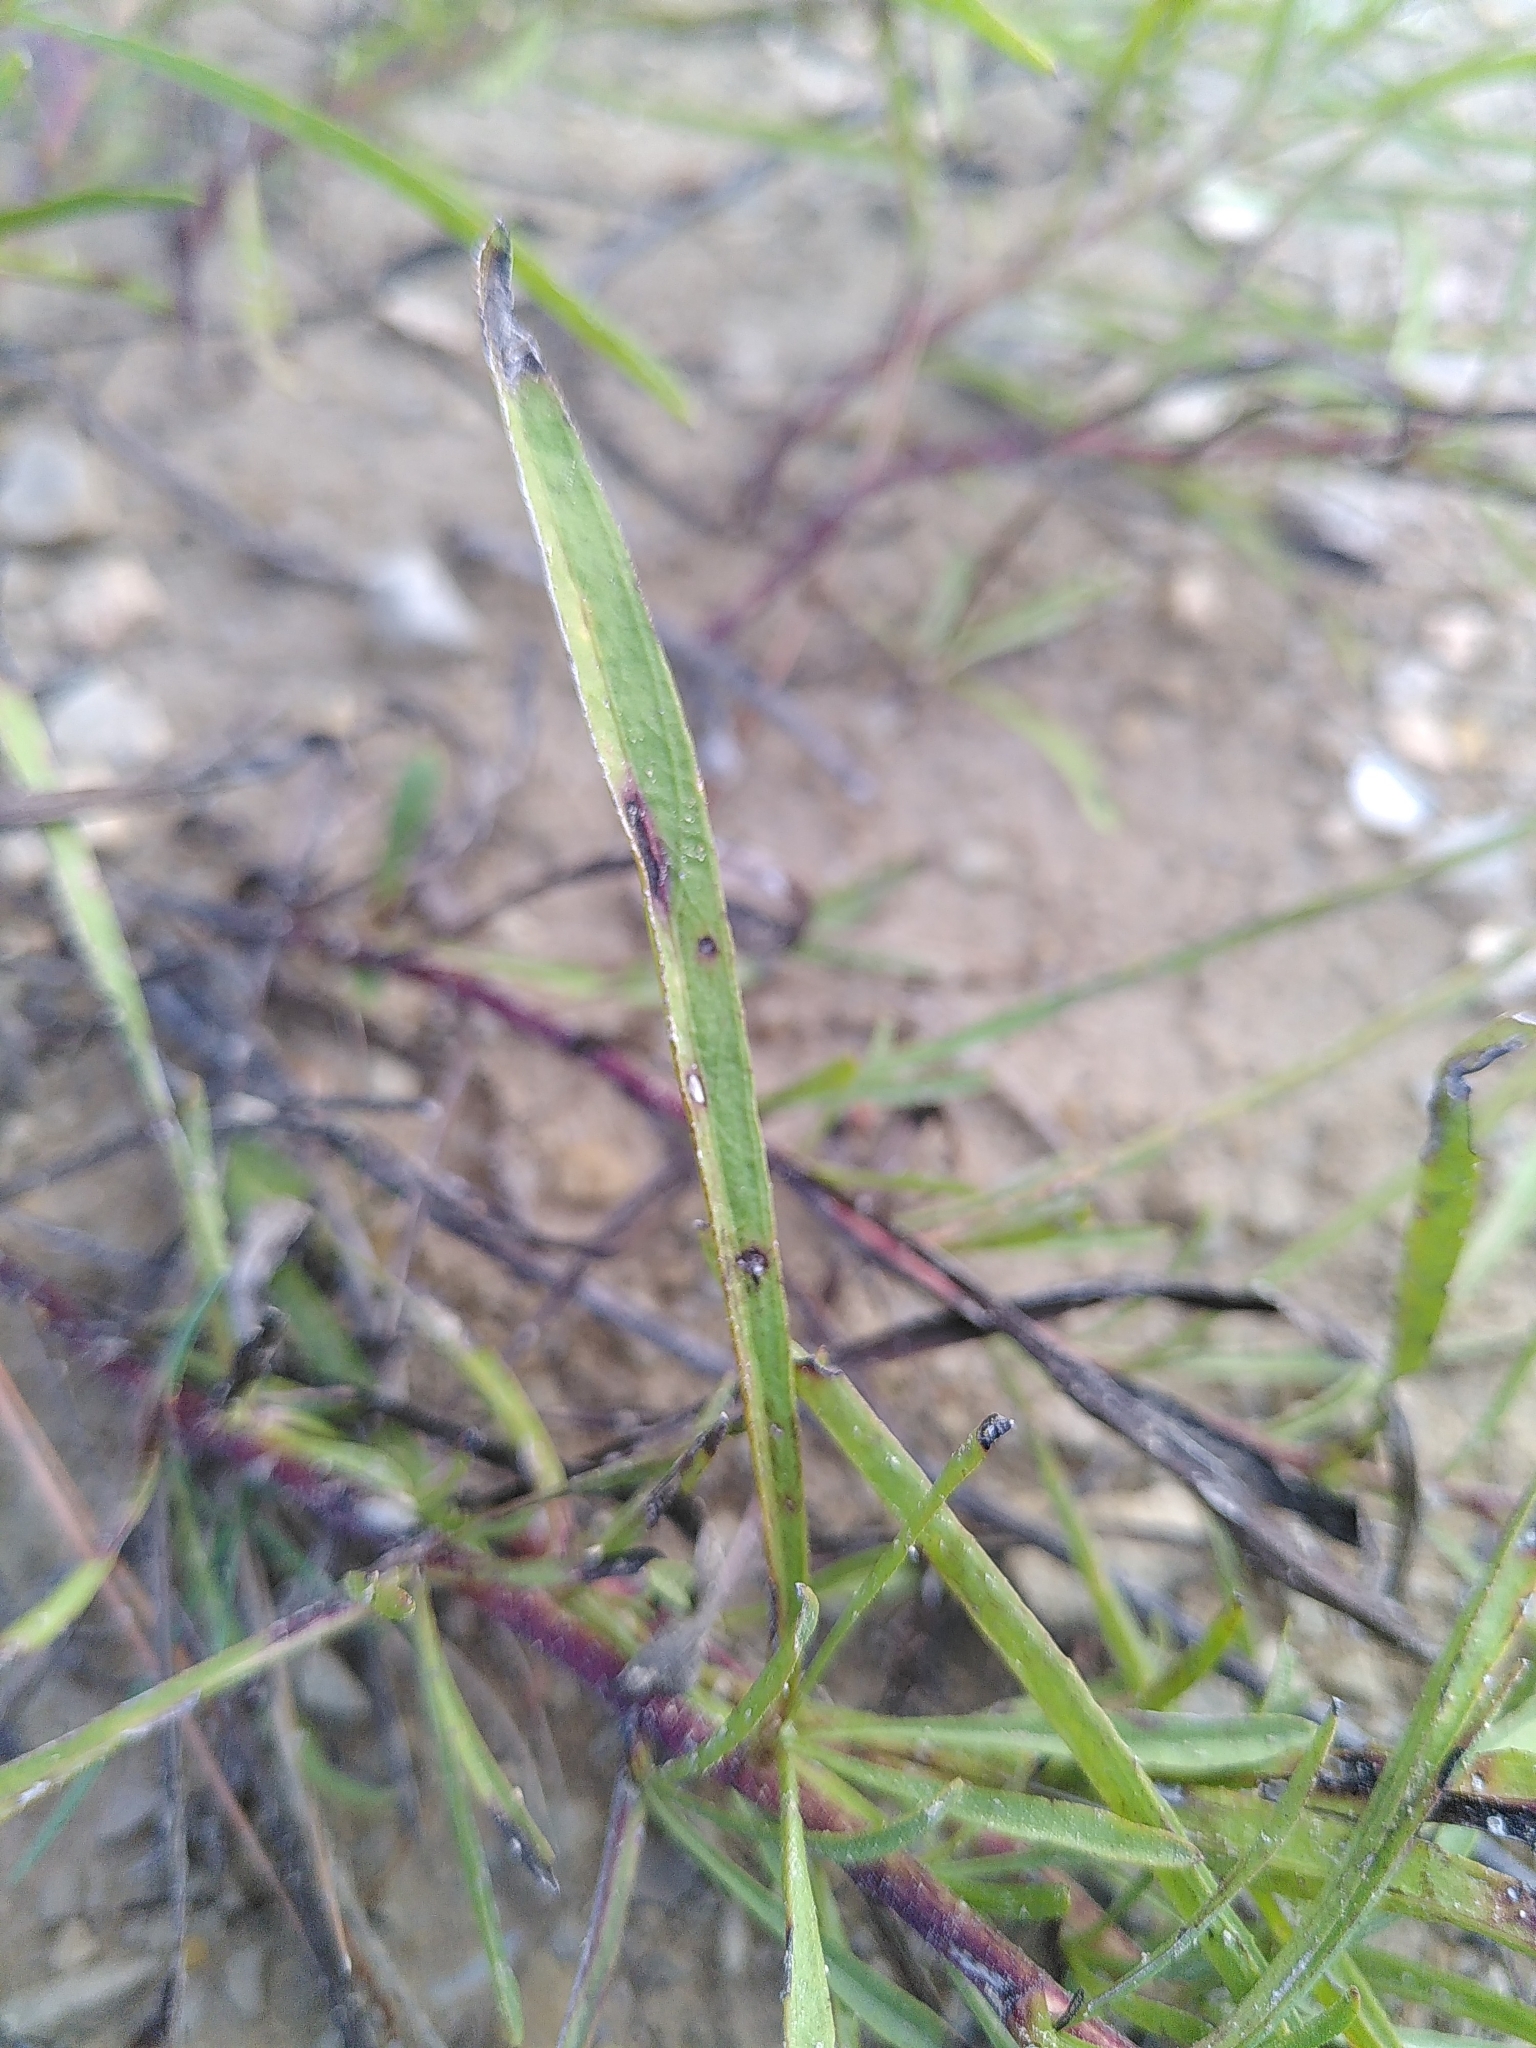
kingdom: Plantae
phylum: Tracheophyta
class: Magnoliopsida
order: Asterales
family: Asteraceae
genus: Jasonia
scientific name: Jasonia tuberosa
